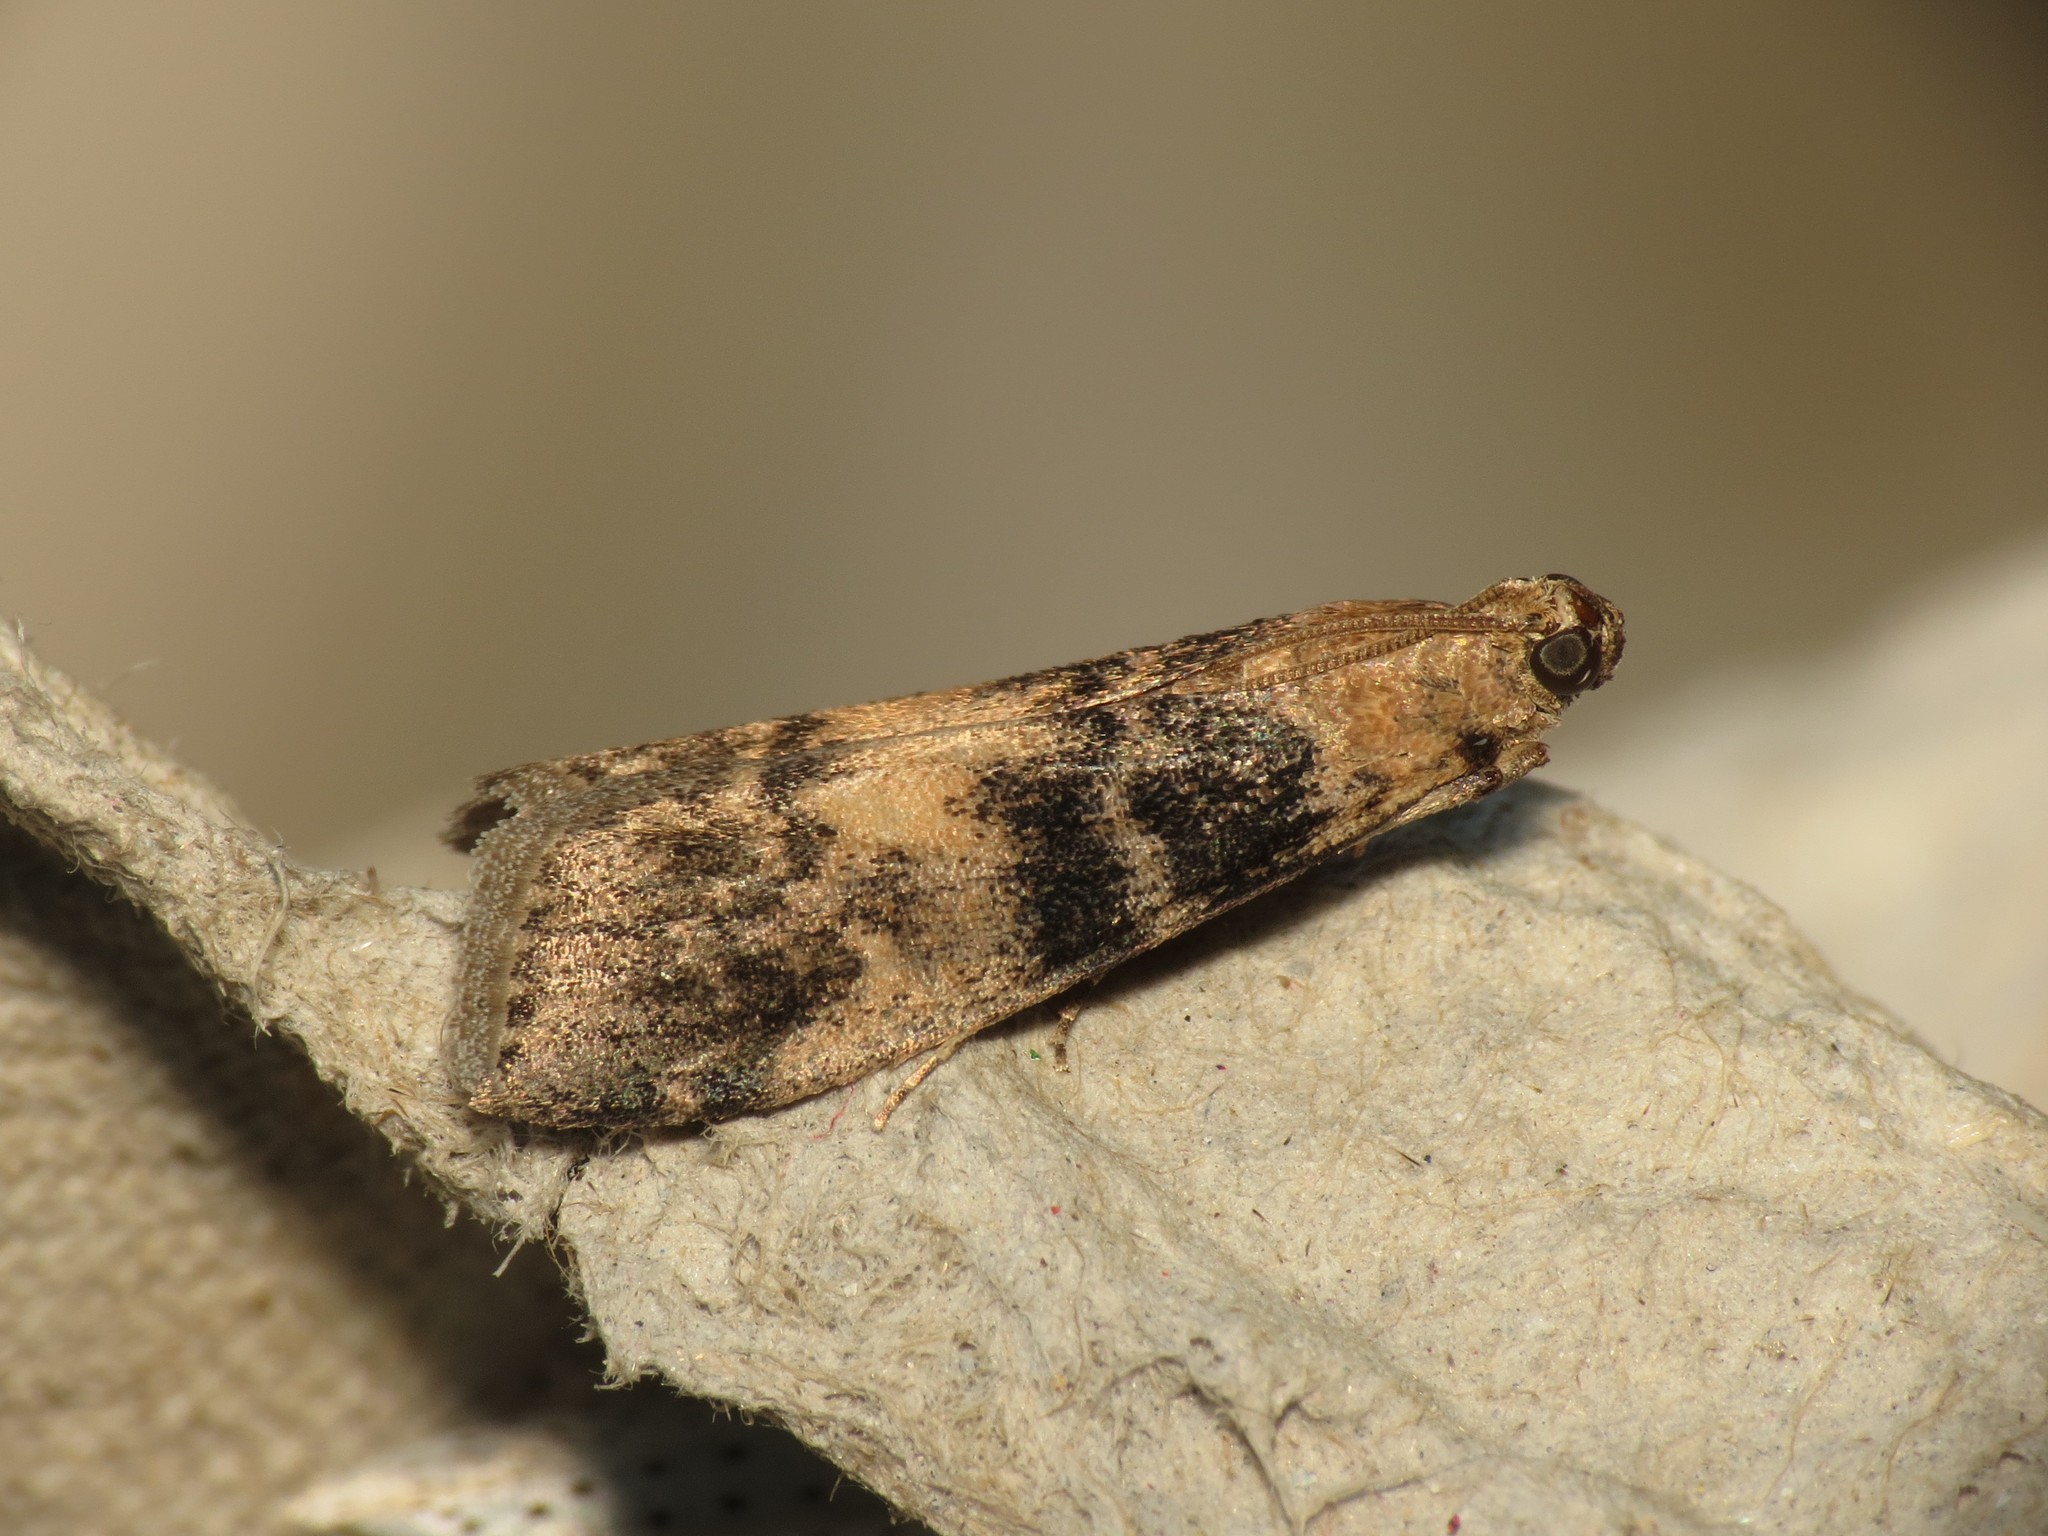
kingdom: Animalia
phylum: Arthropoda
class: Insecta
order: Lepidoptera
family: Pyralidae
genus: Euzophera
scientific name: Euzophera pinguis
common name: Ash-bark knot-horn
